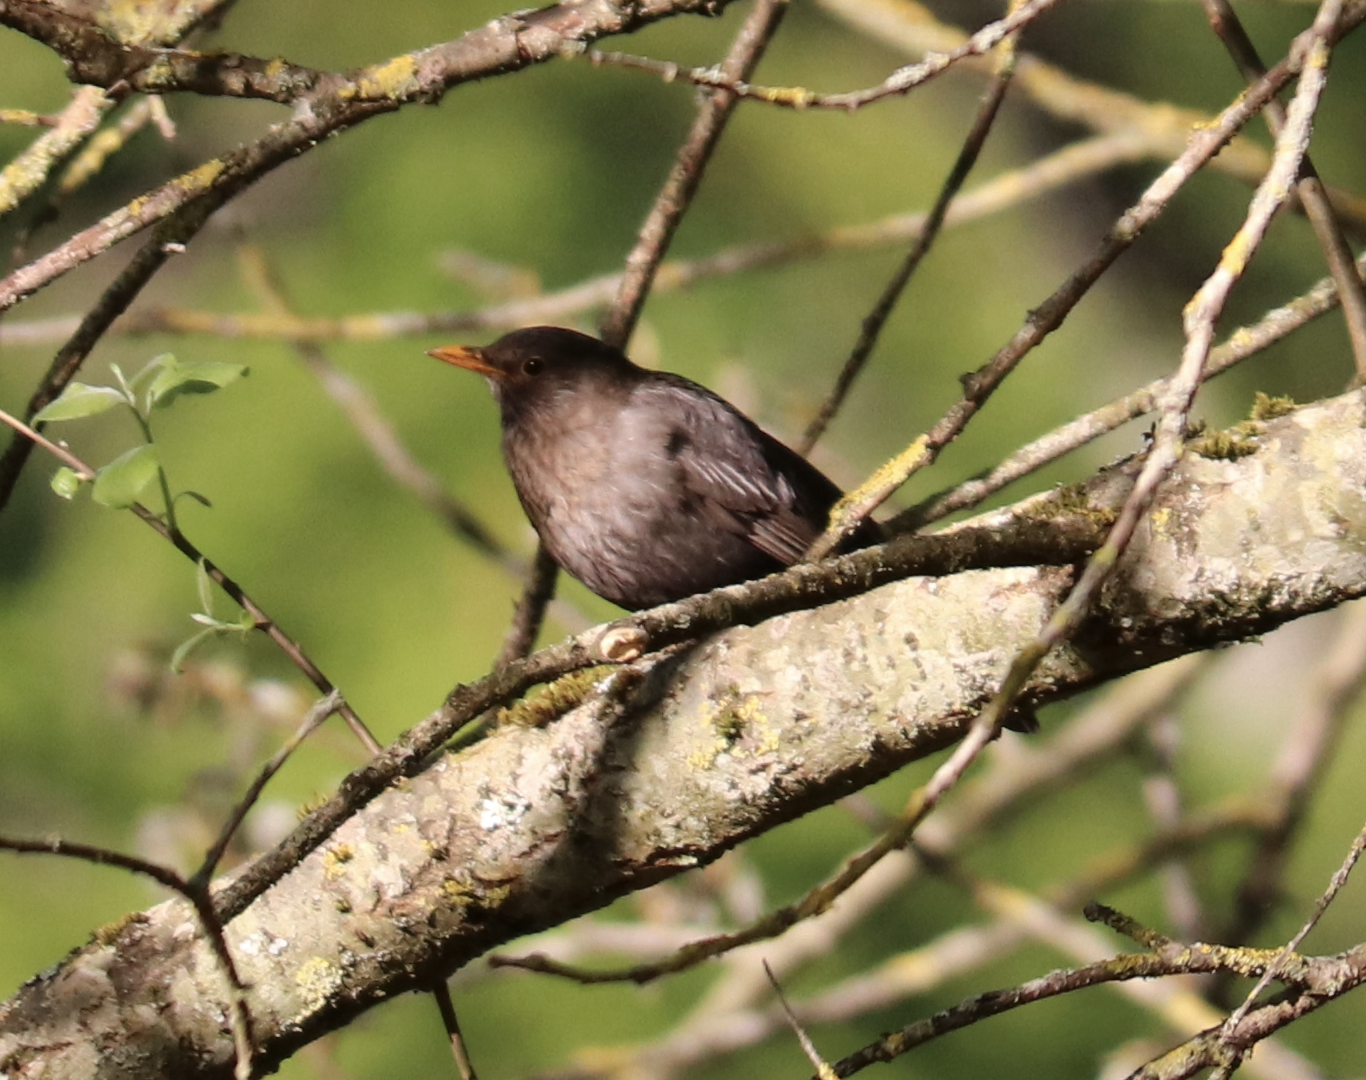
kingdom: Animalia
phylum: Chordata
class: Aves
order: Passeriformes
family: Turdidae
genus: Turdus
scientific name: Turdus merula
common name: Common blackbird
